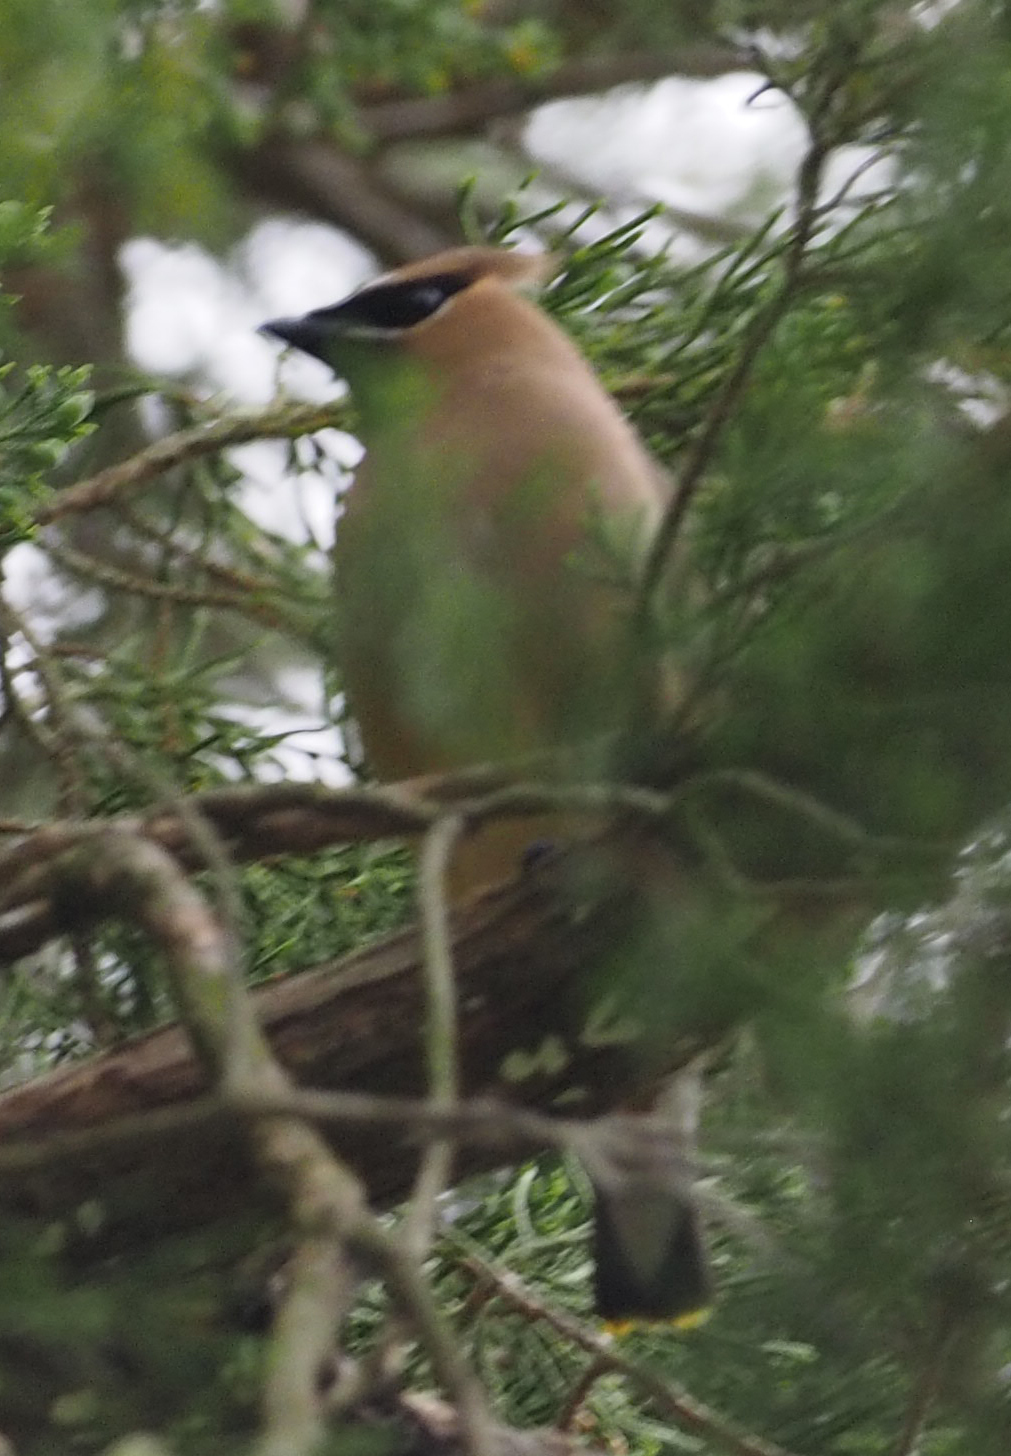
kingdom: Animalia
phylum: Chordata
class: Aves
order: Passeriformes
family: Bombycillidae
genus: Bombycilla
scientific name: Bombycilla cedrorum
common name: Cedar waxwing
